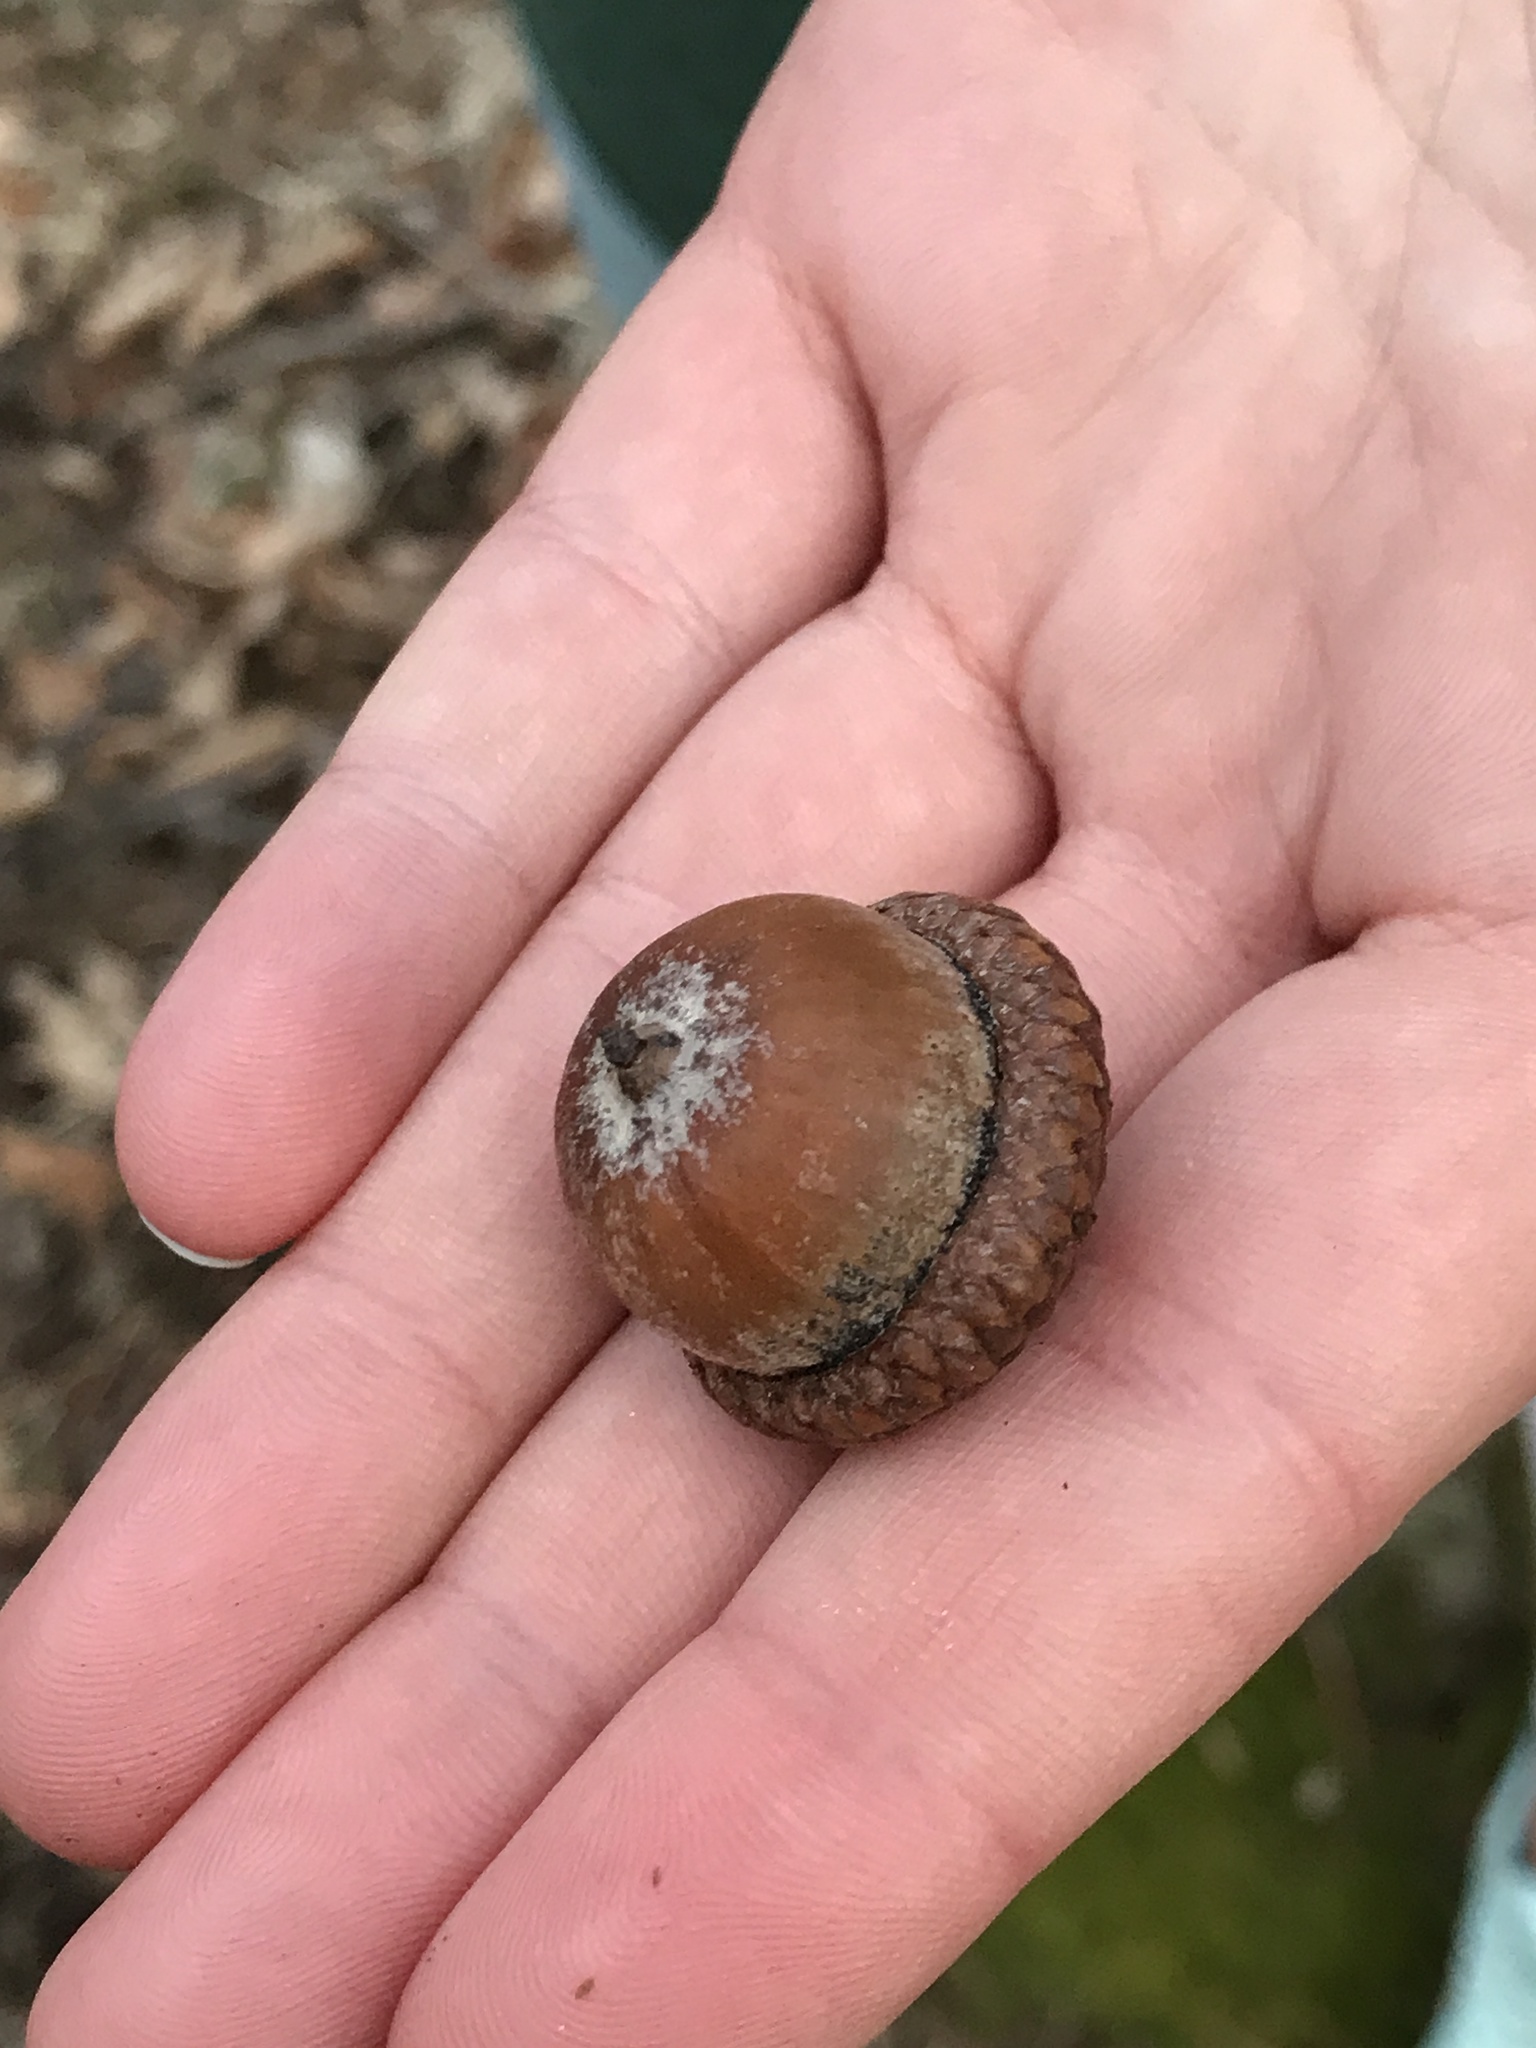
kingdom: Plantae
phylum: Tracheophyta
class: Magnoliopsida
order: Fagales
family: Fagaceae
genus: Quercus
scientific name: Quercus rubra
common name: Red oak
